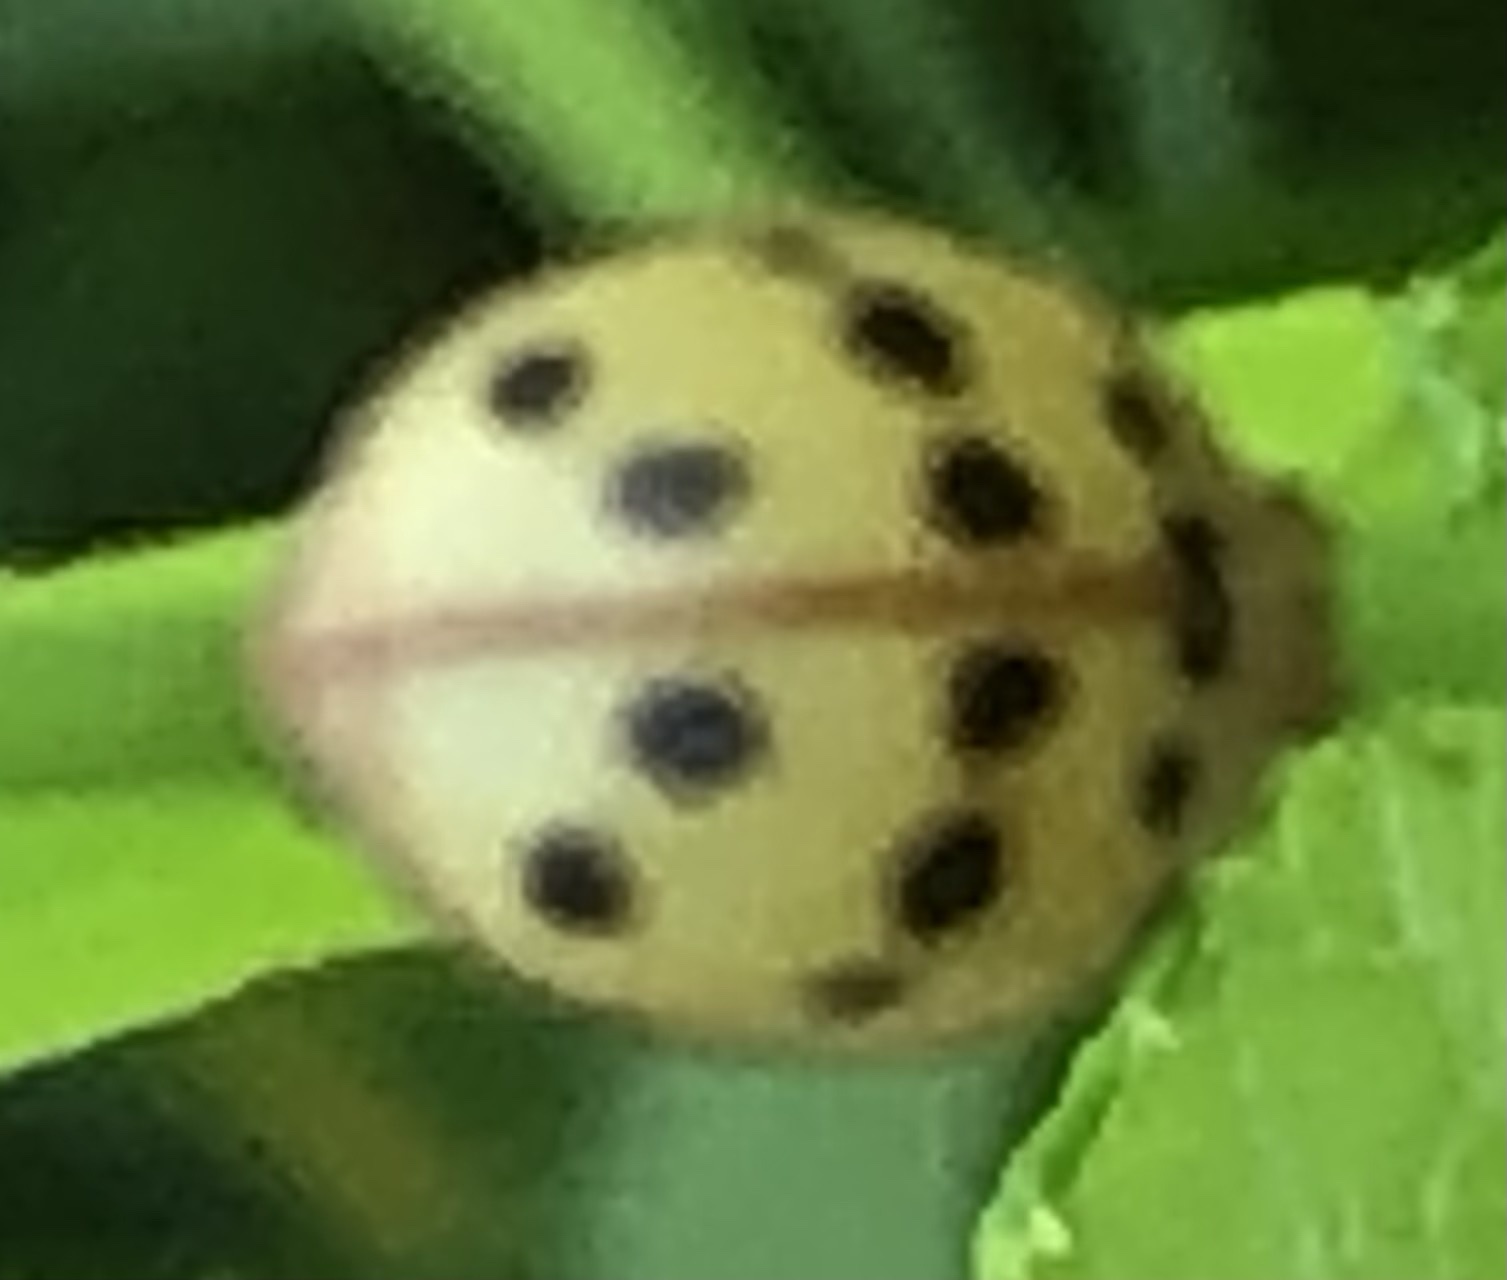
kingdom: Animalia
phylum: Arthropoda
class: Insecta
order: Coleoptera
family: Coccinellidae
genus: Epilachna
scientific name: Epilachna varivestis
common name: Ladybird beetle
